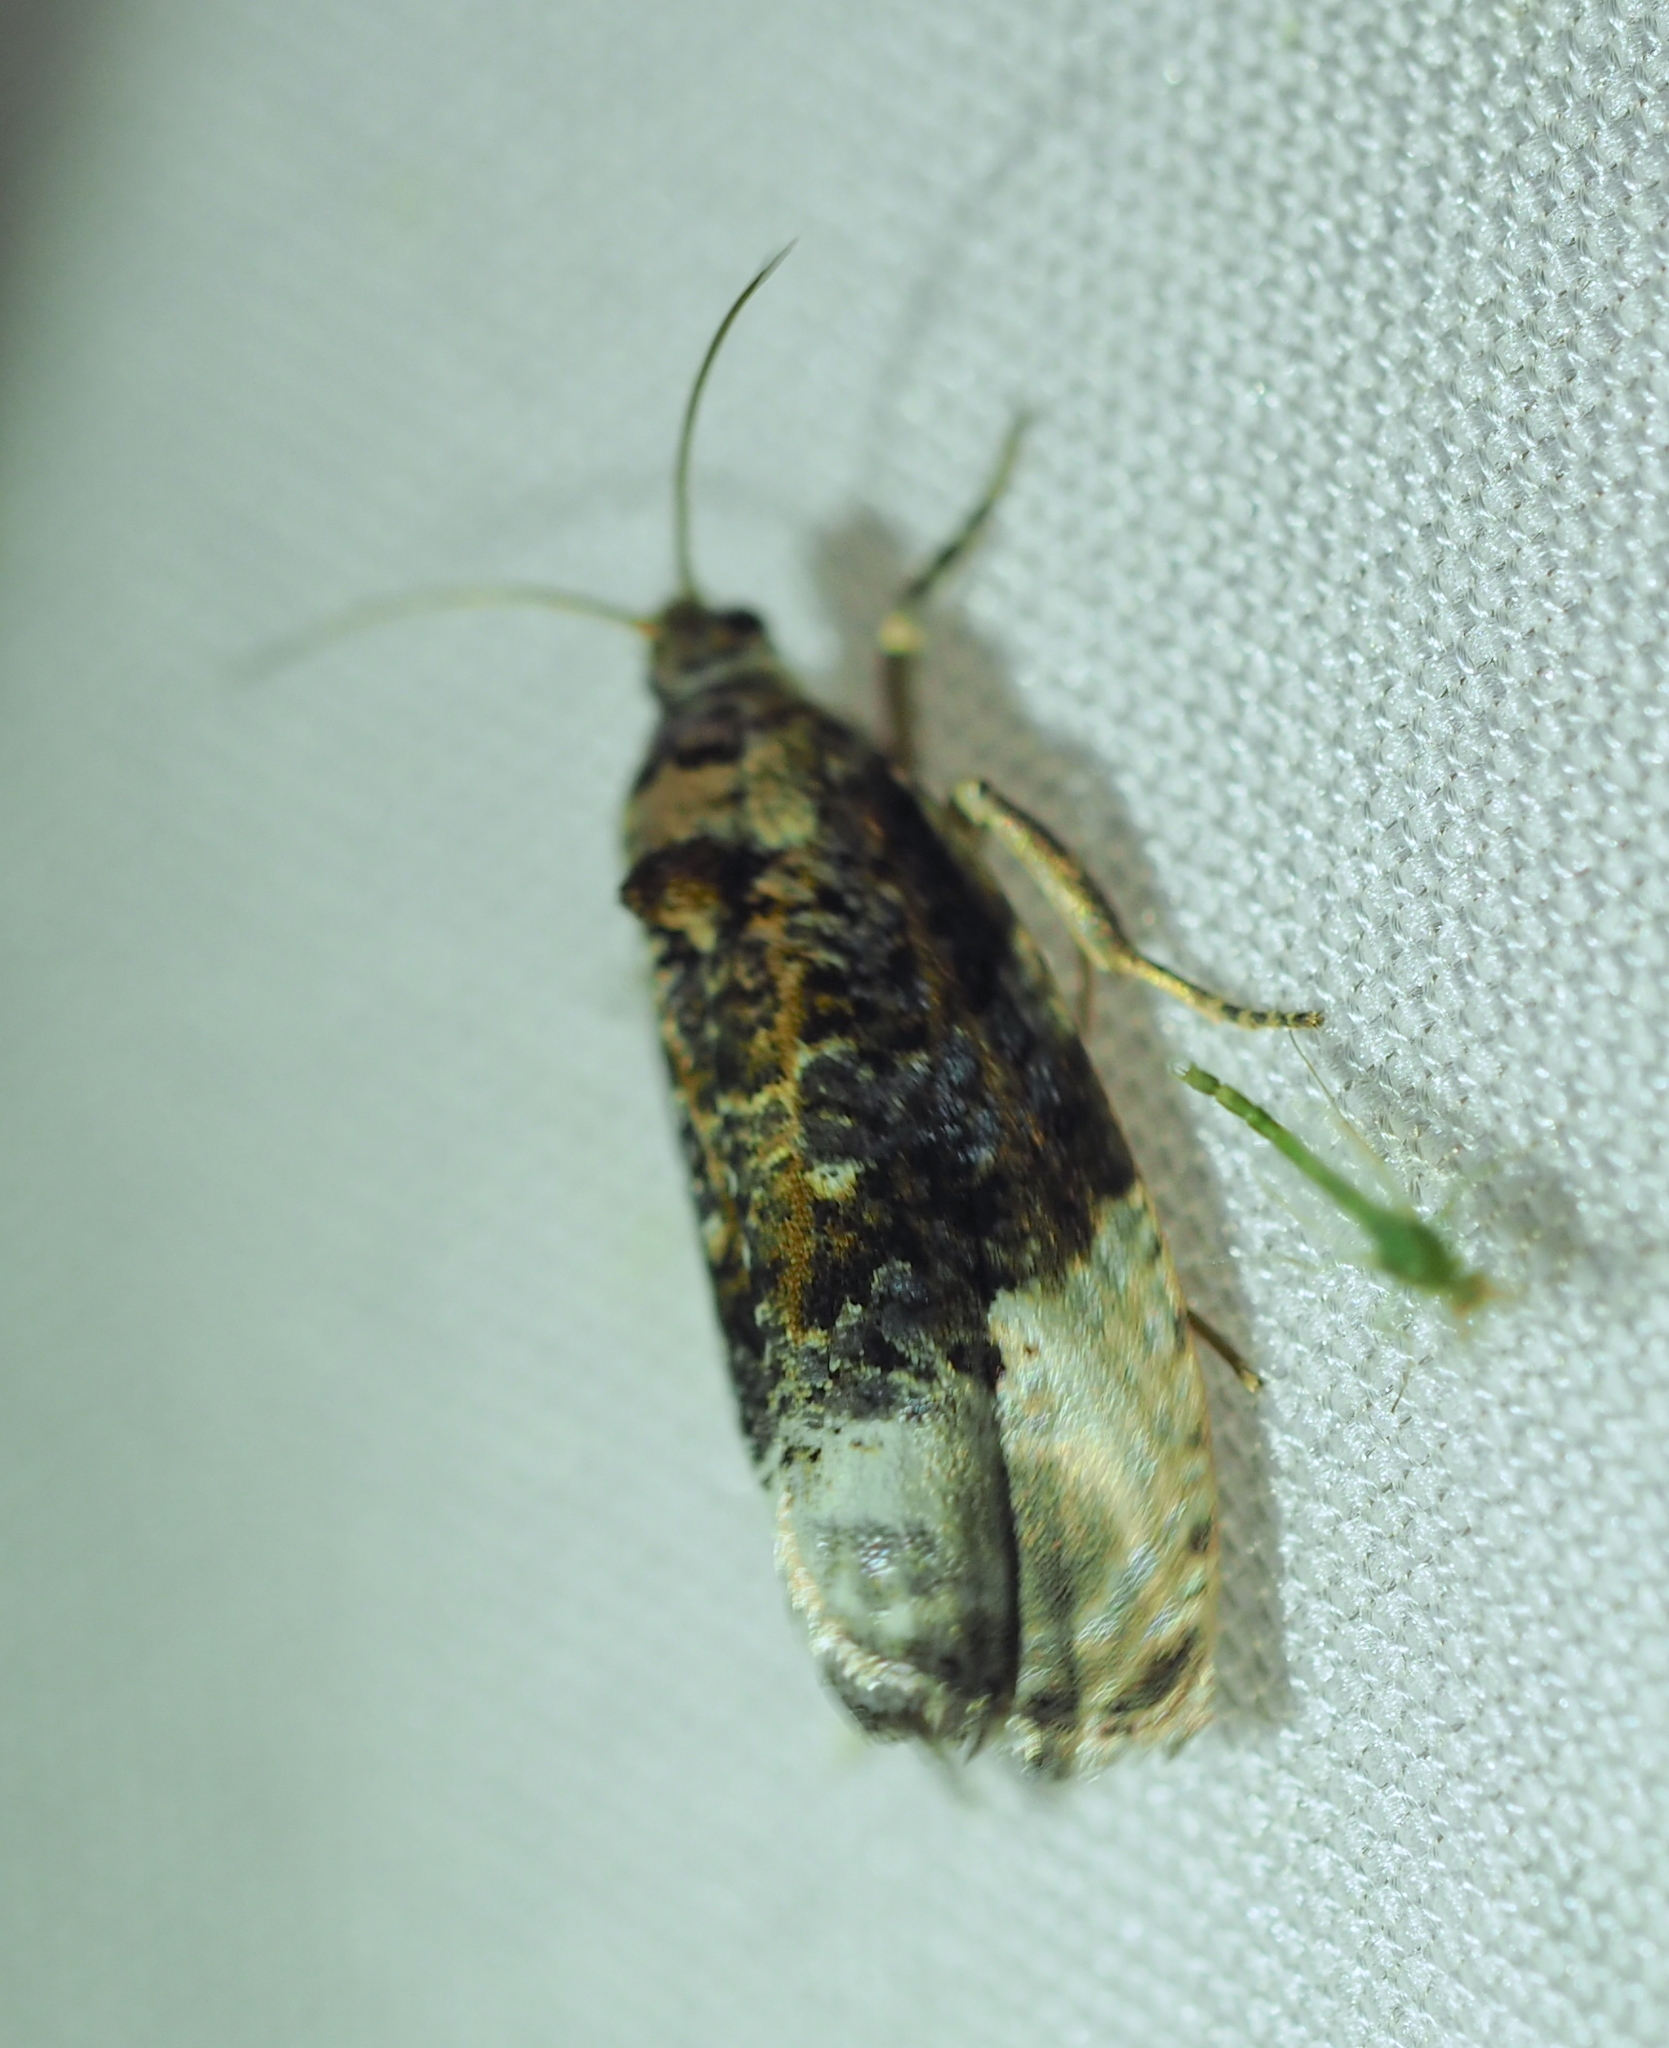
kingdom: Animalia
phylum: Arthropoda
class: Insecta
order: Lepidoptera
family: Tortricidae
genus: Hedya
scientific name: Hedya nubiferana
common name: Marbled orchard tortrix
